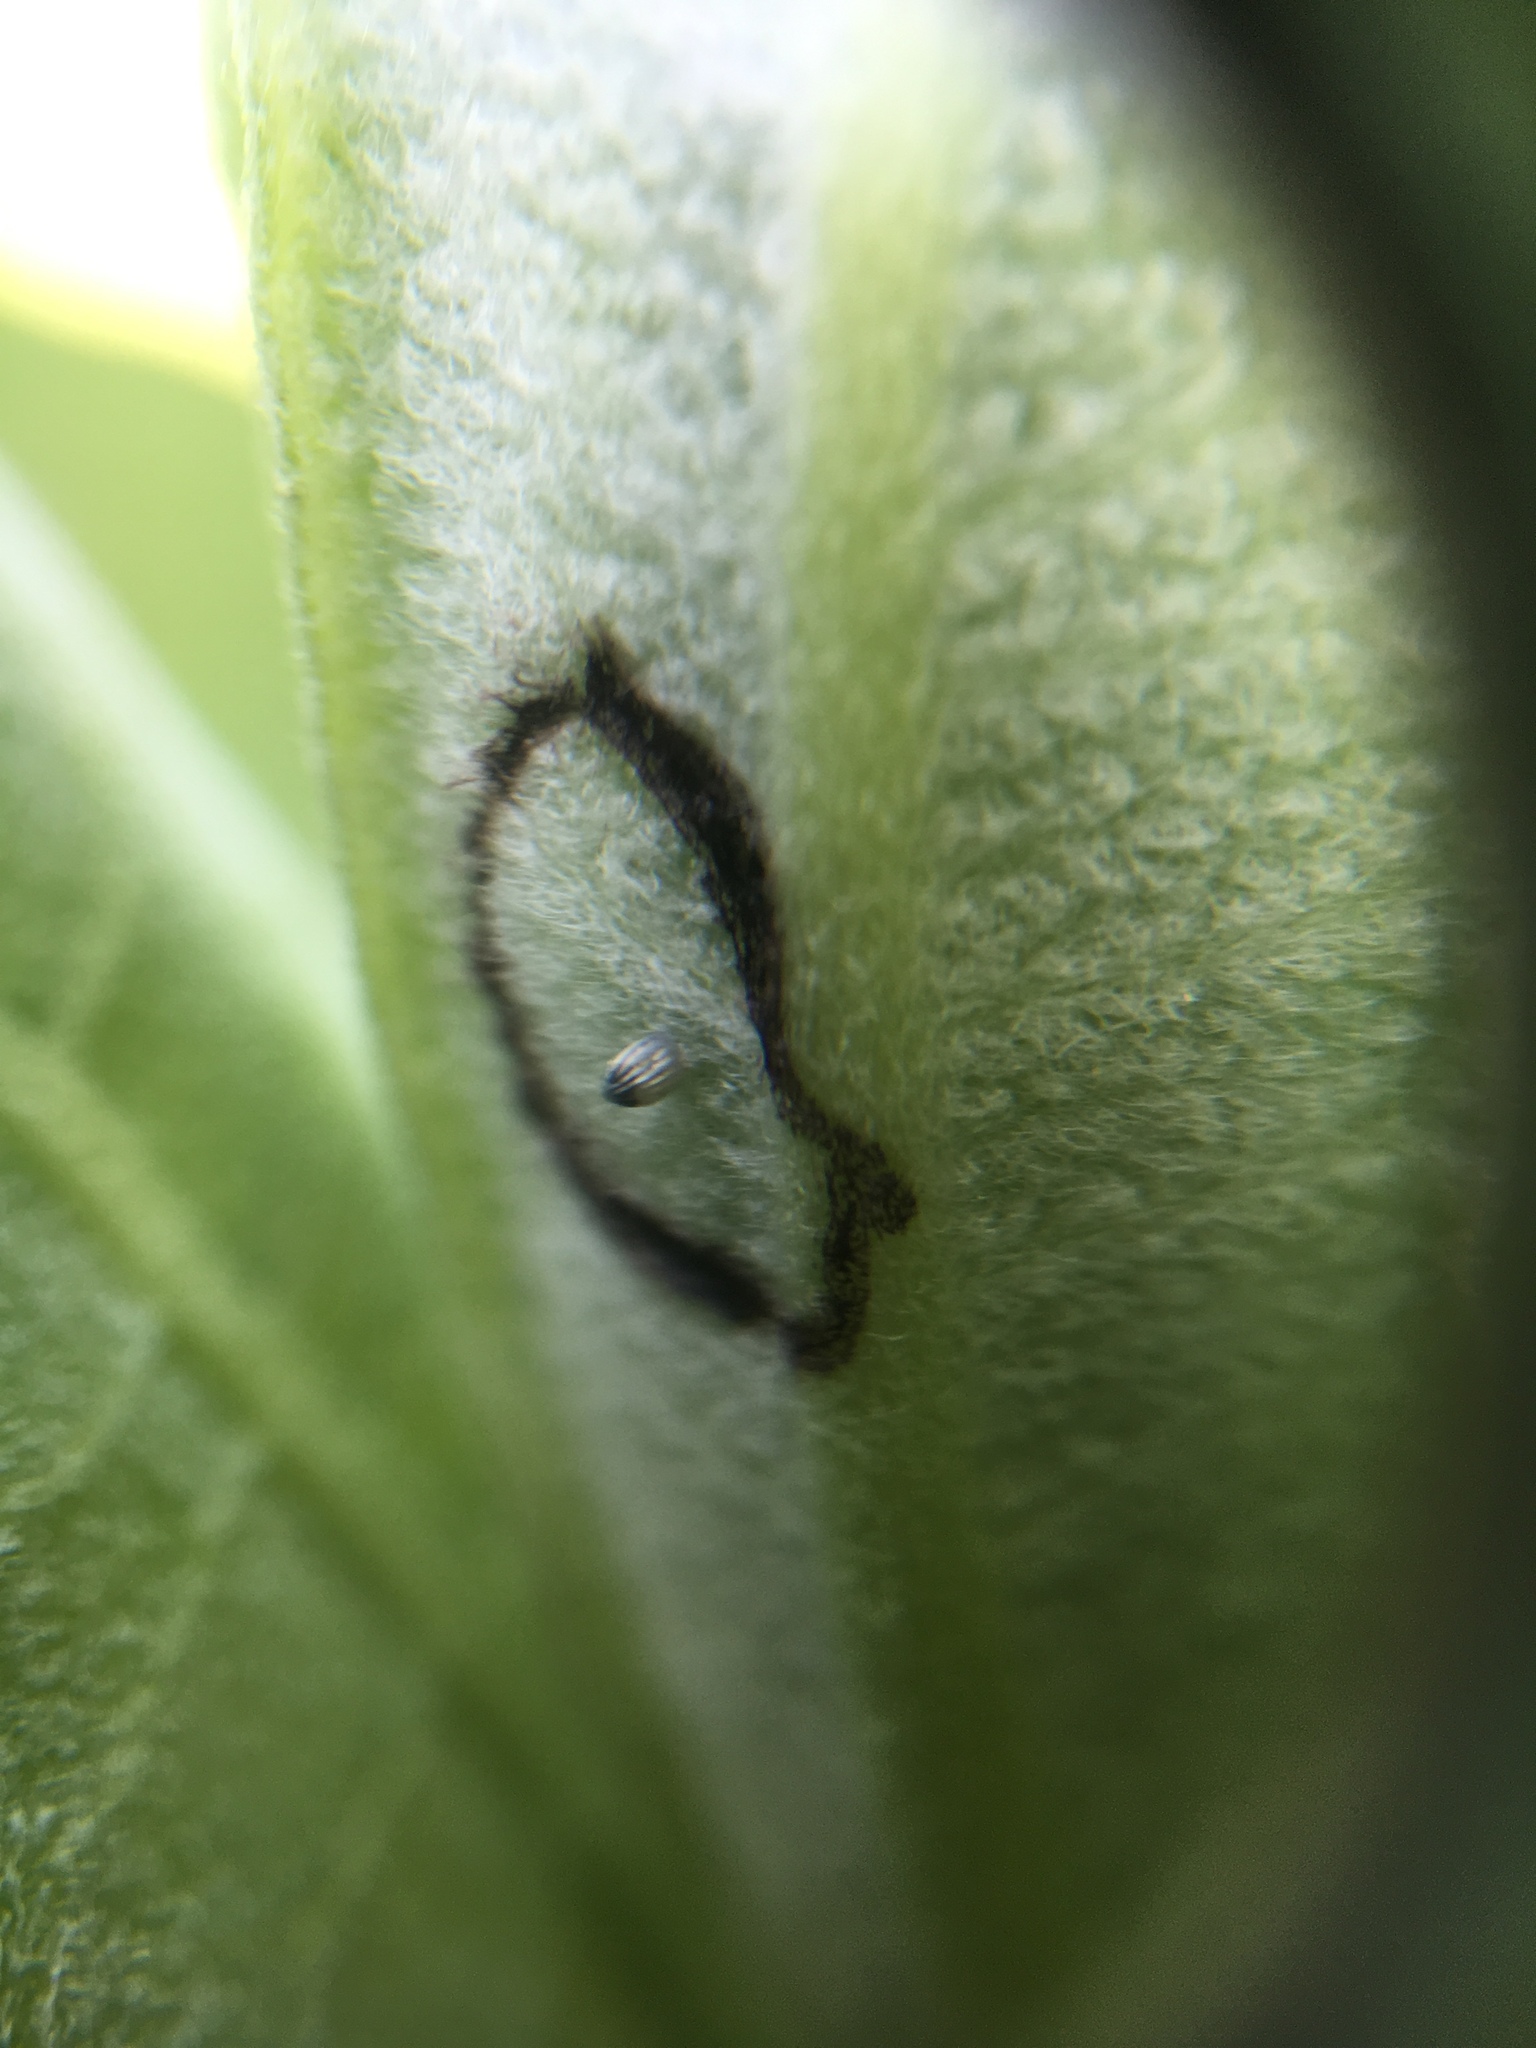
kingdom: Animalia
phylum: Arthropoda
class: Insecta
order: Lepidoptera
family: Nymphalidae
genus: Danaus
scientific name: Danaus plexippus
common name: Monarch
